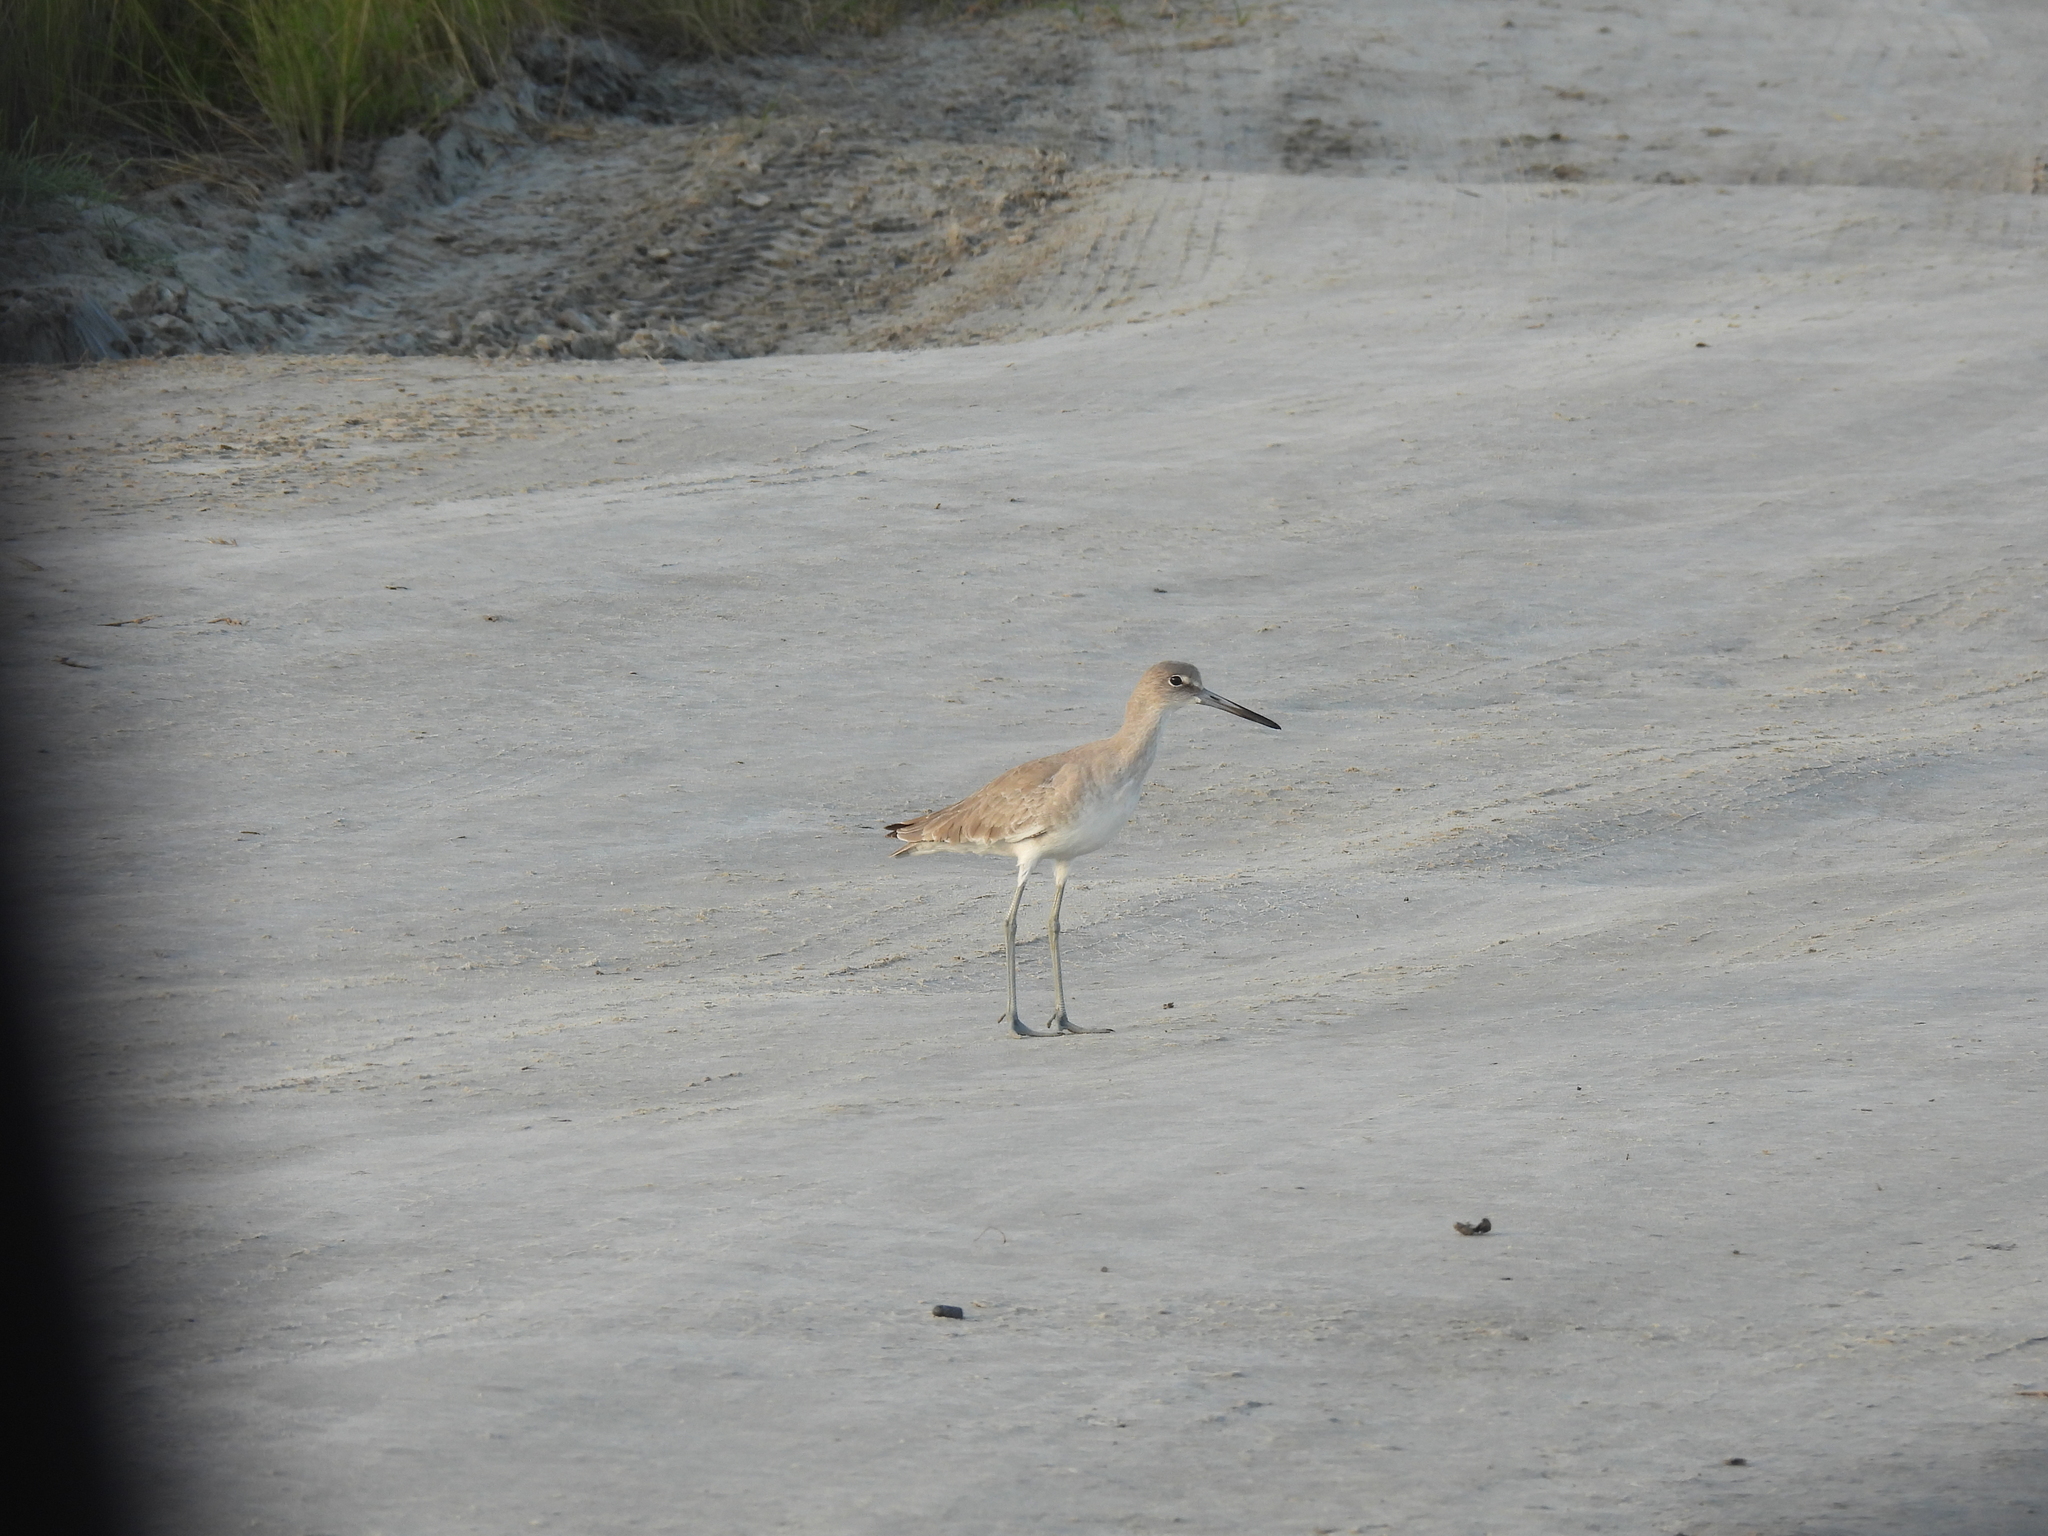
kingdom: Animalia
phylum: Chordata
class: Aves
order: Charadriiformes
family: Scolopacidae
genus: Tringa
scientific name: Tringa semipalmata
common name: Willet
